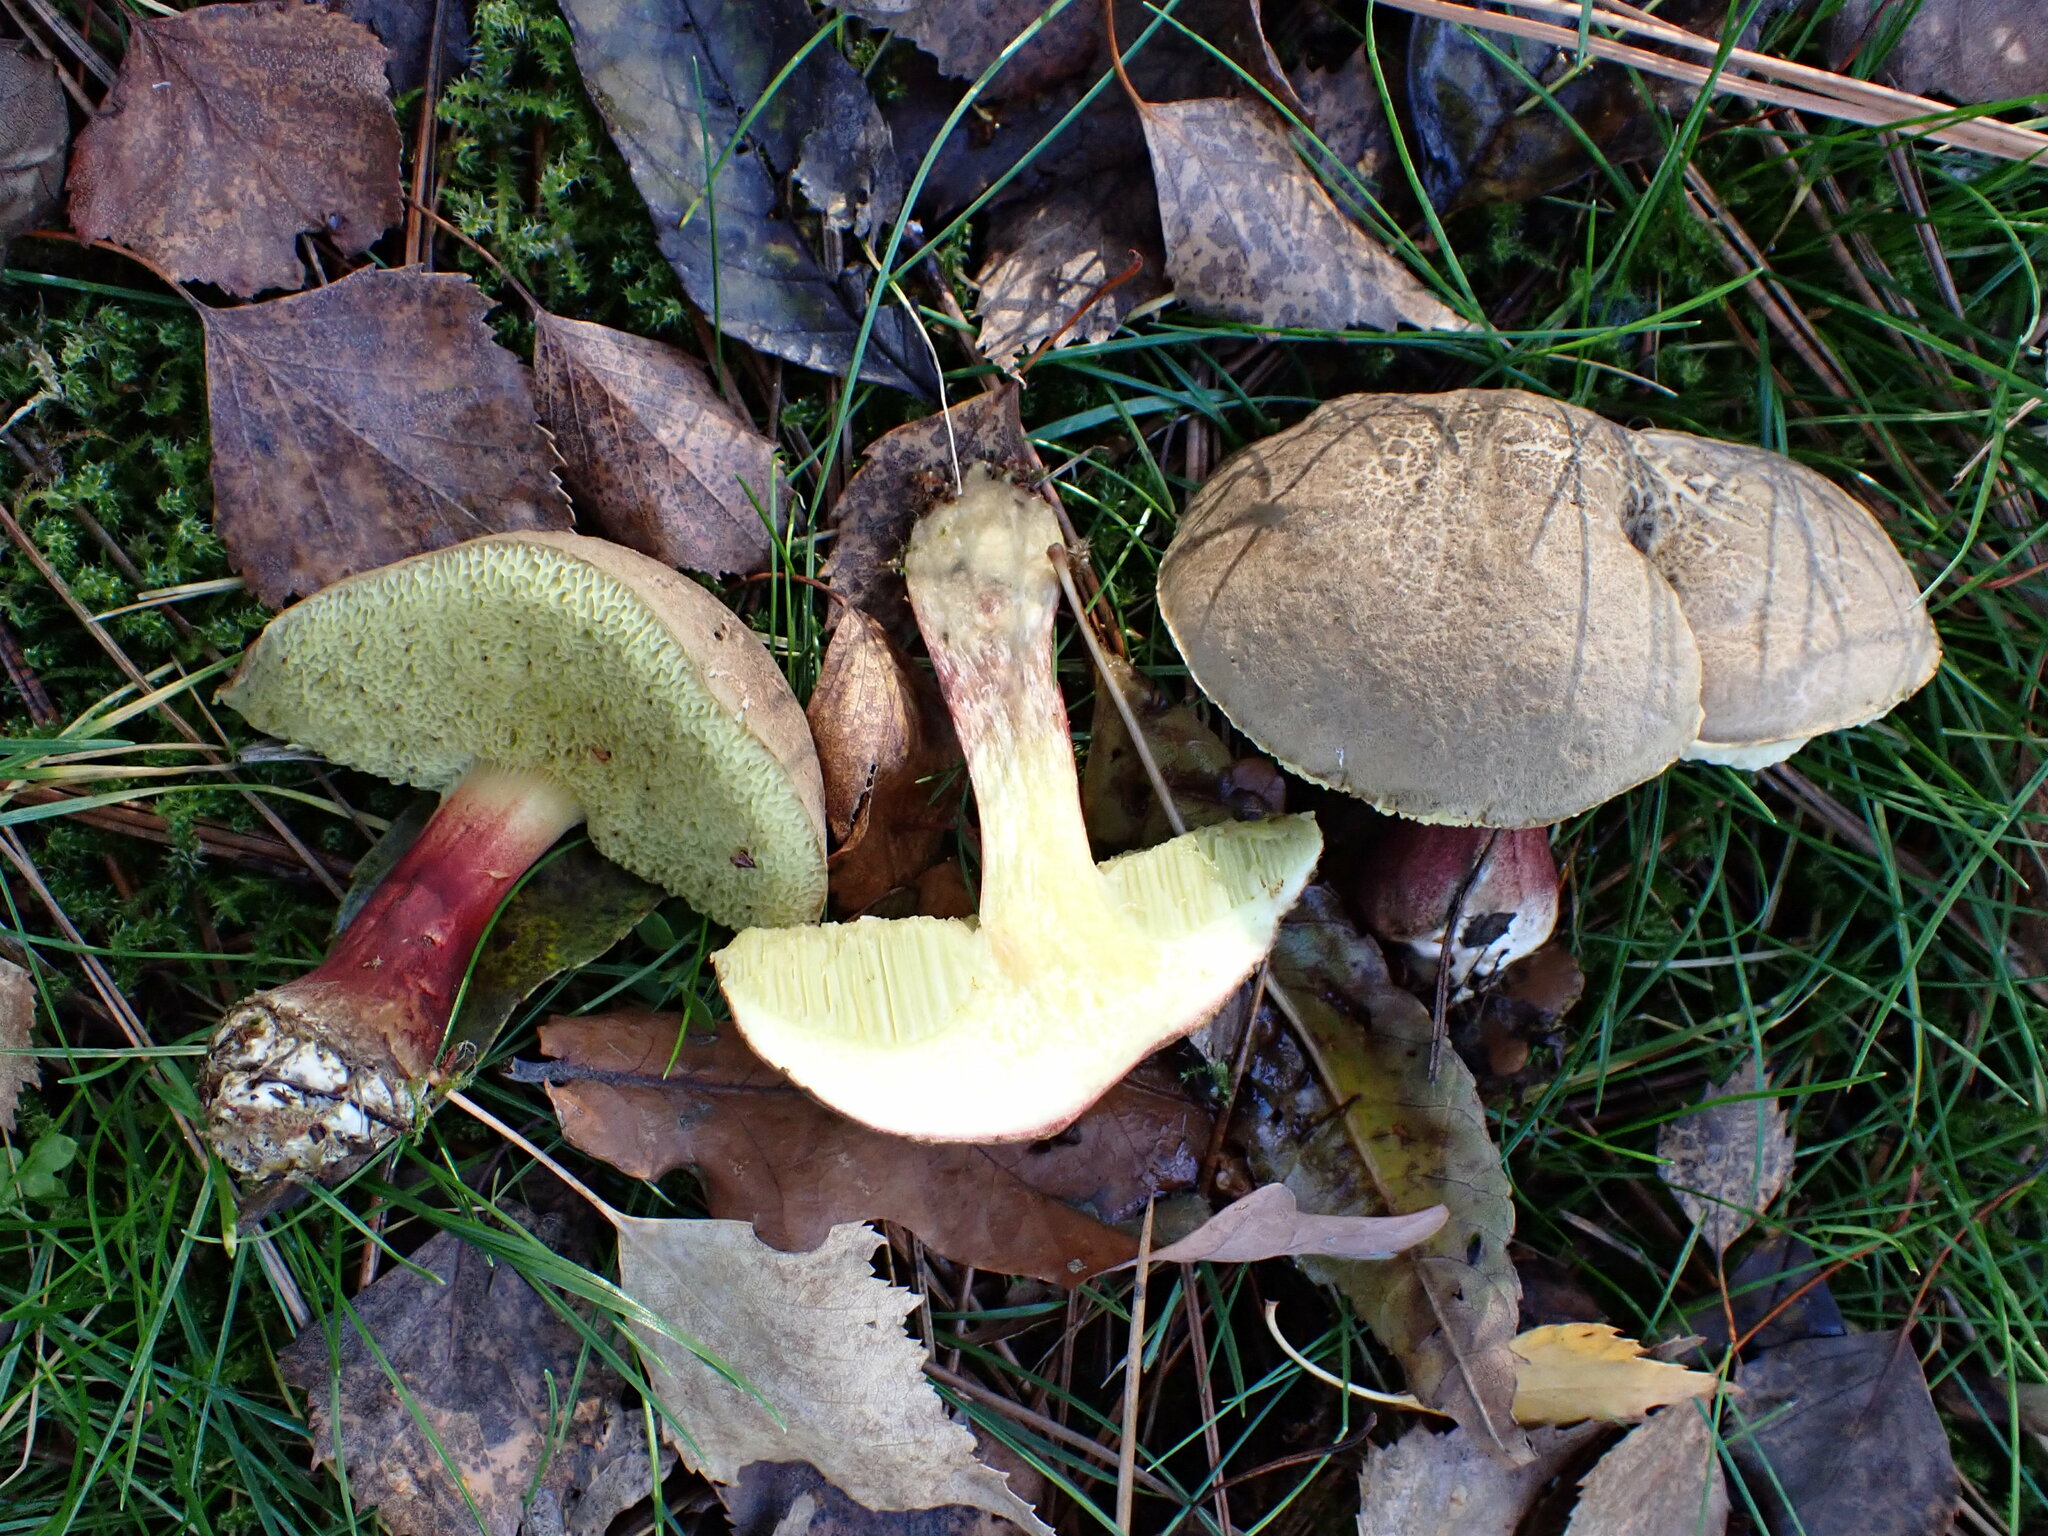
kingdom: Fungi
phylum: Basidiomycota
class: Agaricomycetes
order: Boletales
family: Boletaceae
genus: Xerocomellus
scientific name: Xerocomellus chrysenteron
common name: Red-cracking bolete
